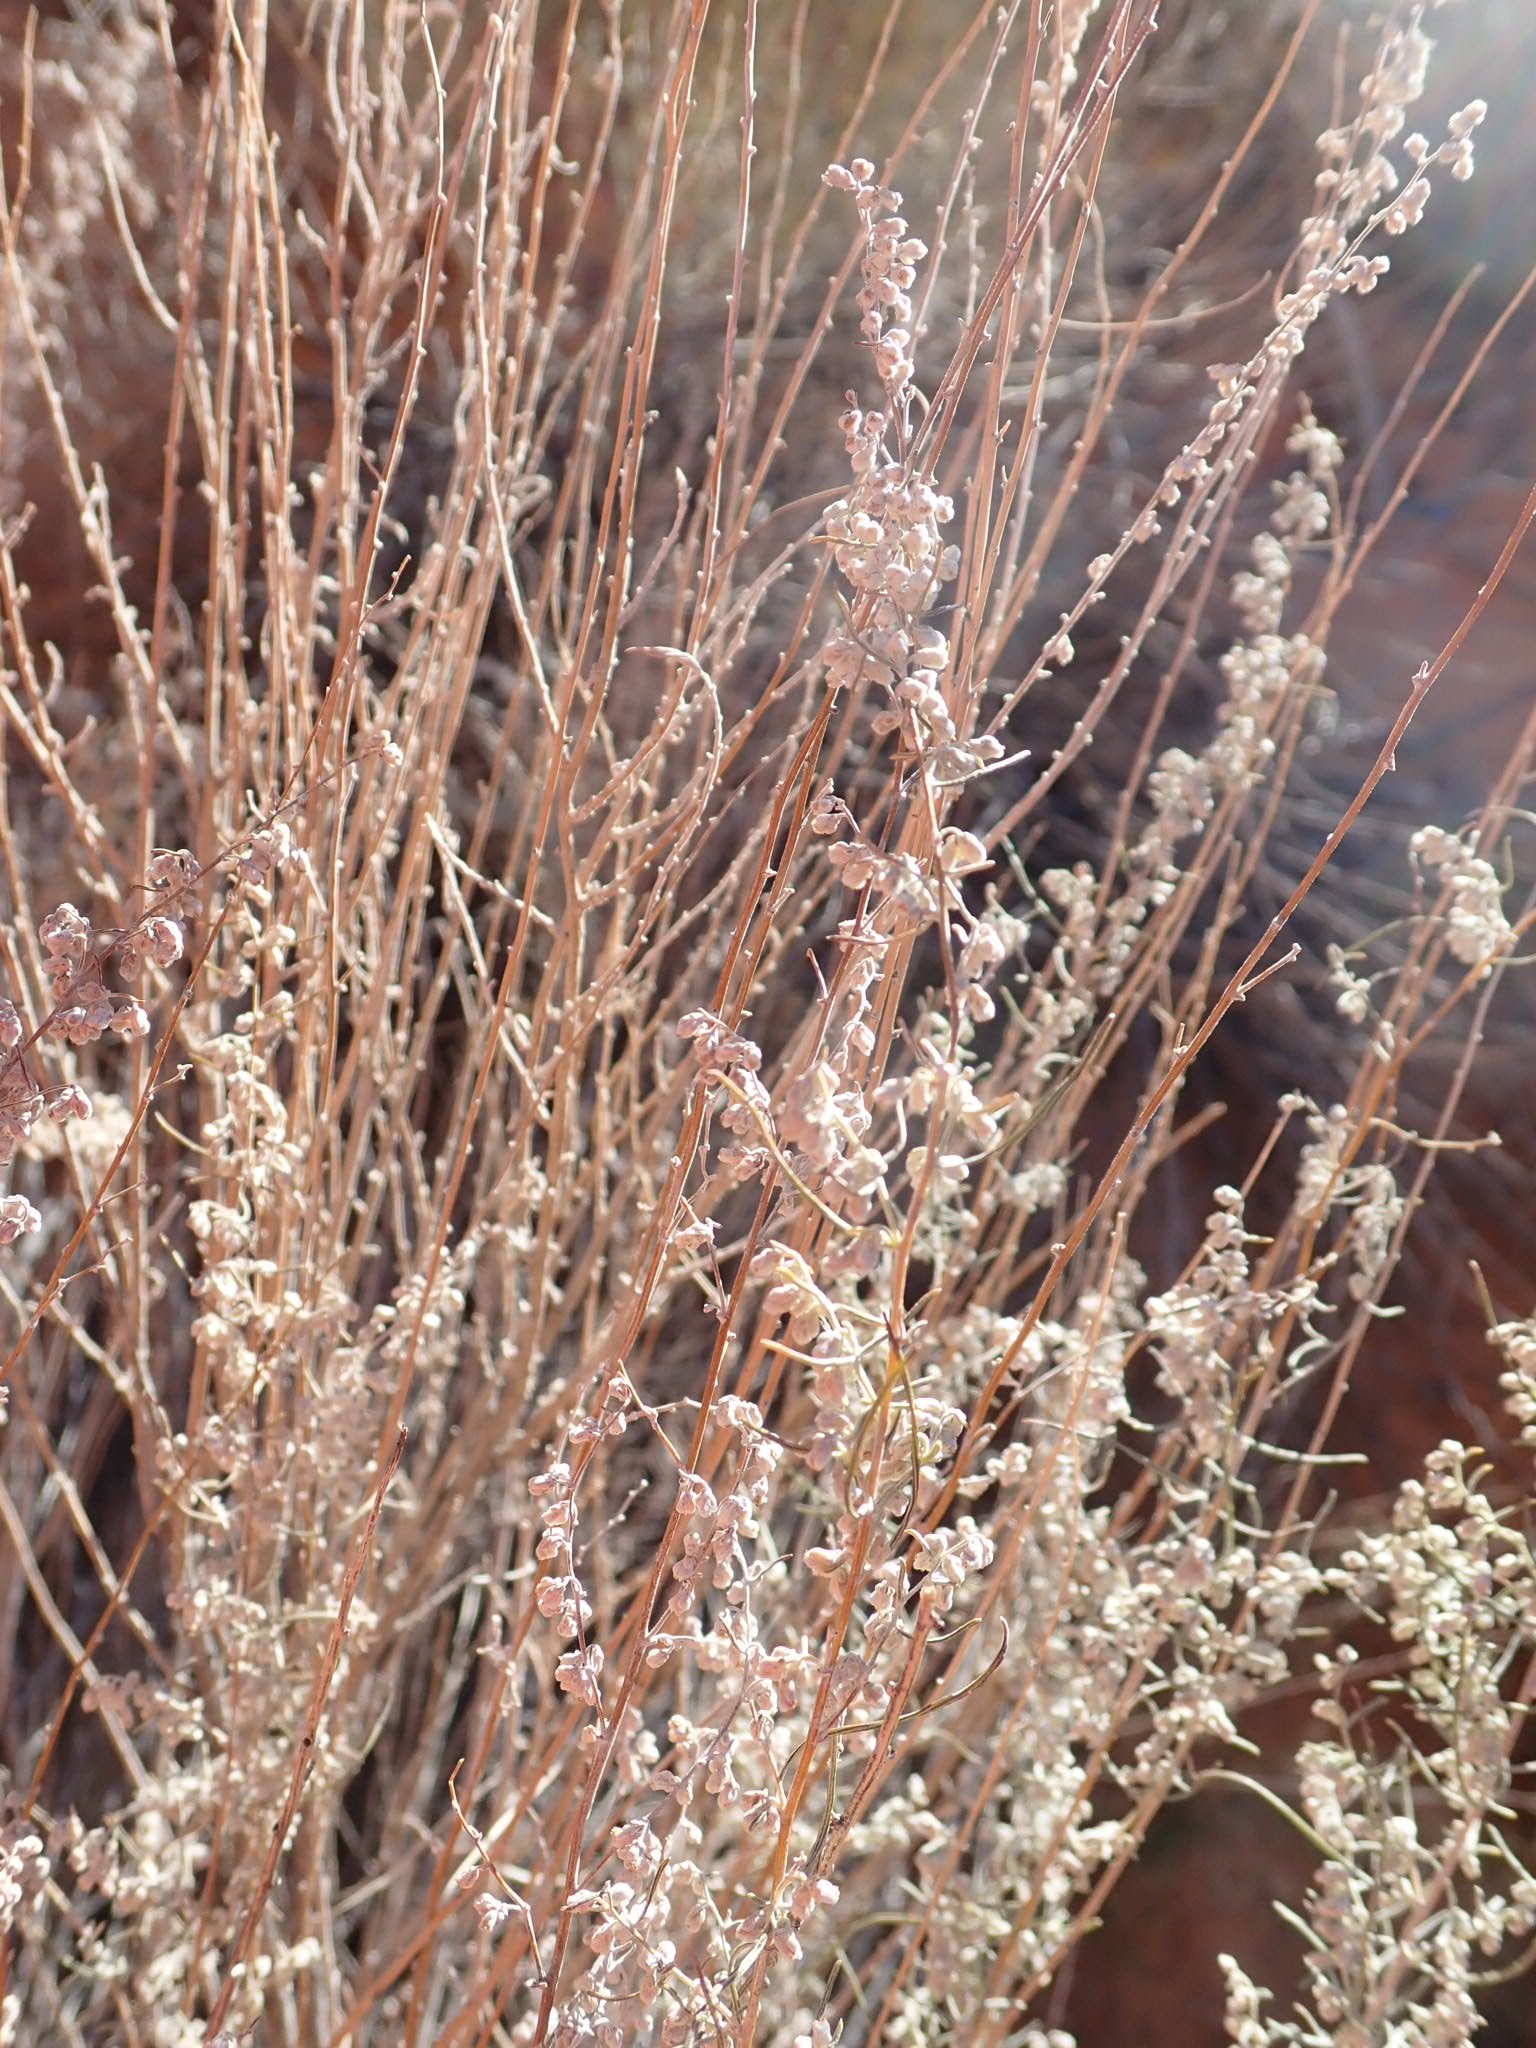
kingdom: Plantae
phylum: Tracheophyta
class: Magnoliopsida
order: Asterales
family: Asteraceae
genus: Artemisia
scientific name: Artemisia filifolia
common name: Sand-sage
